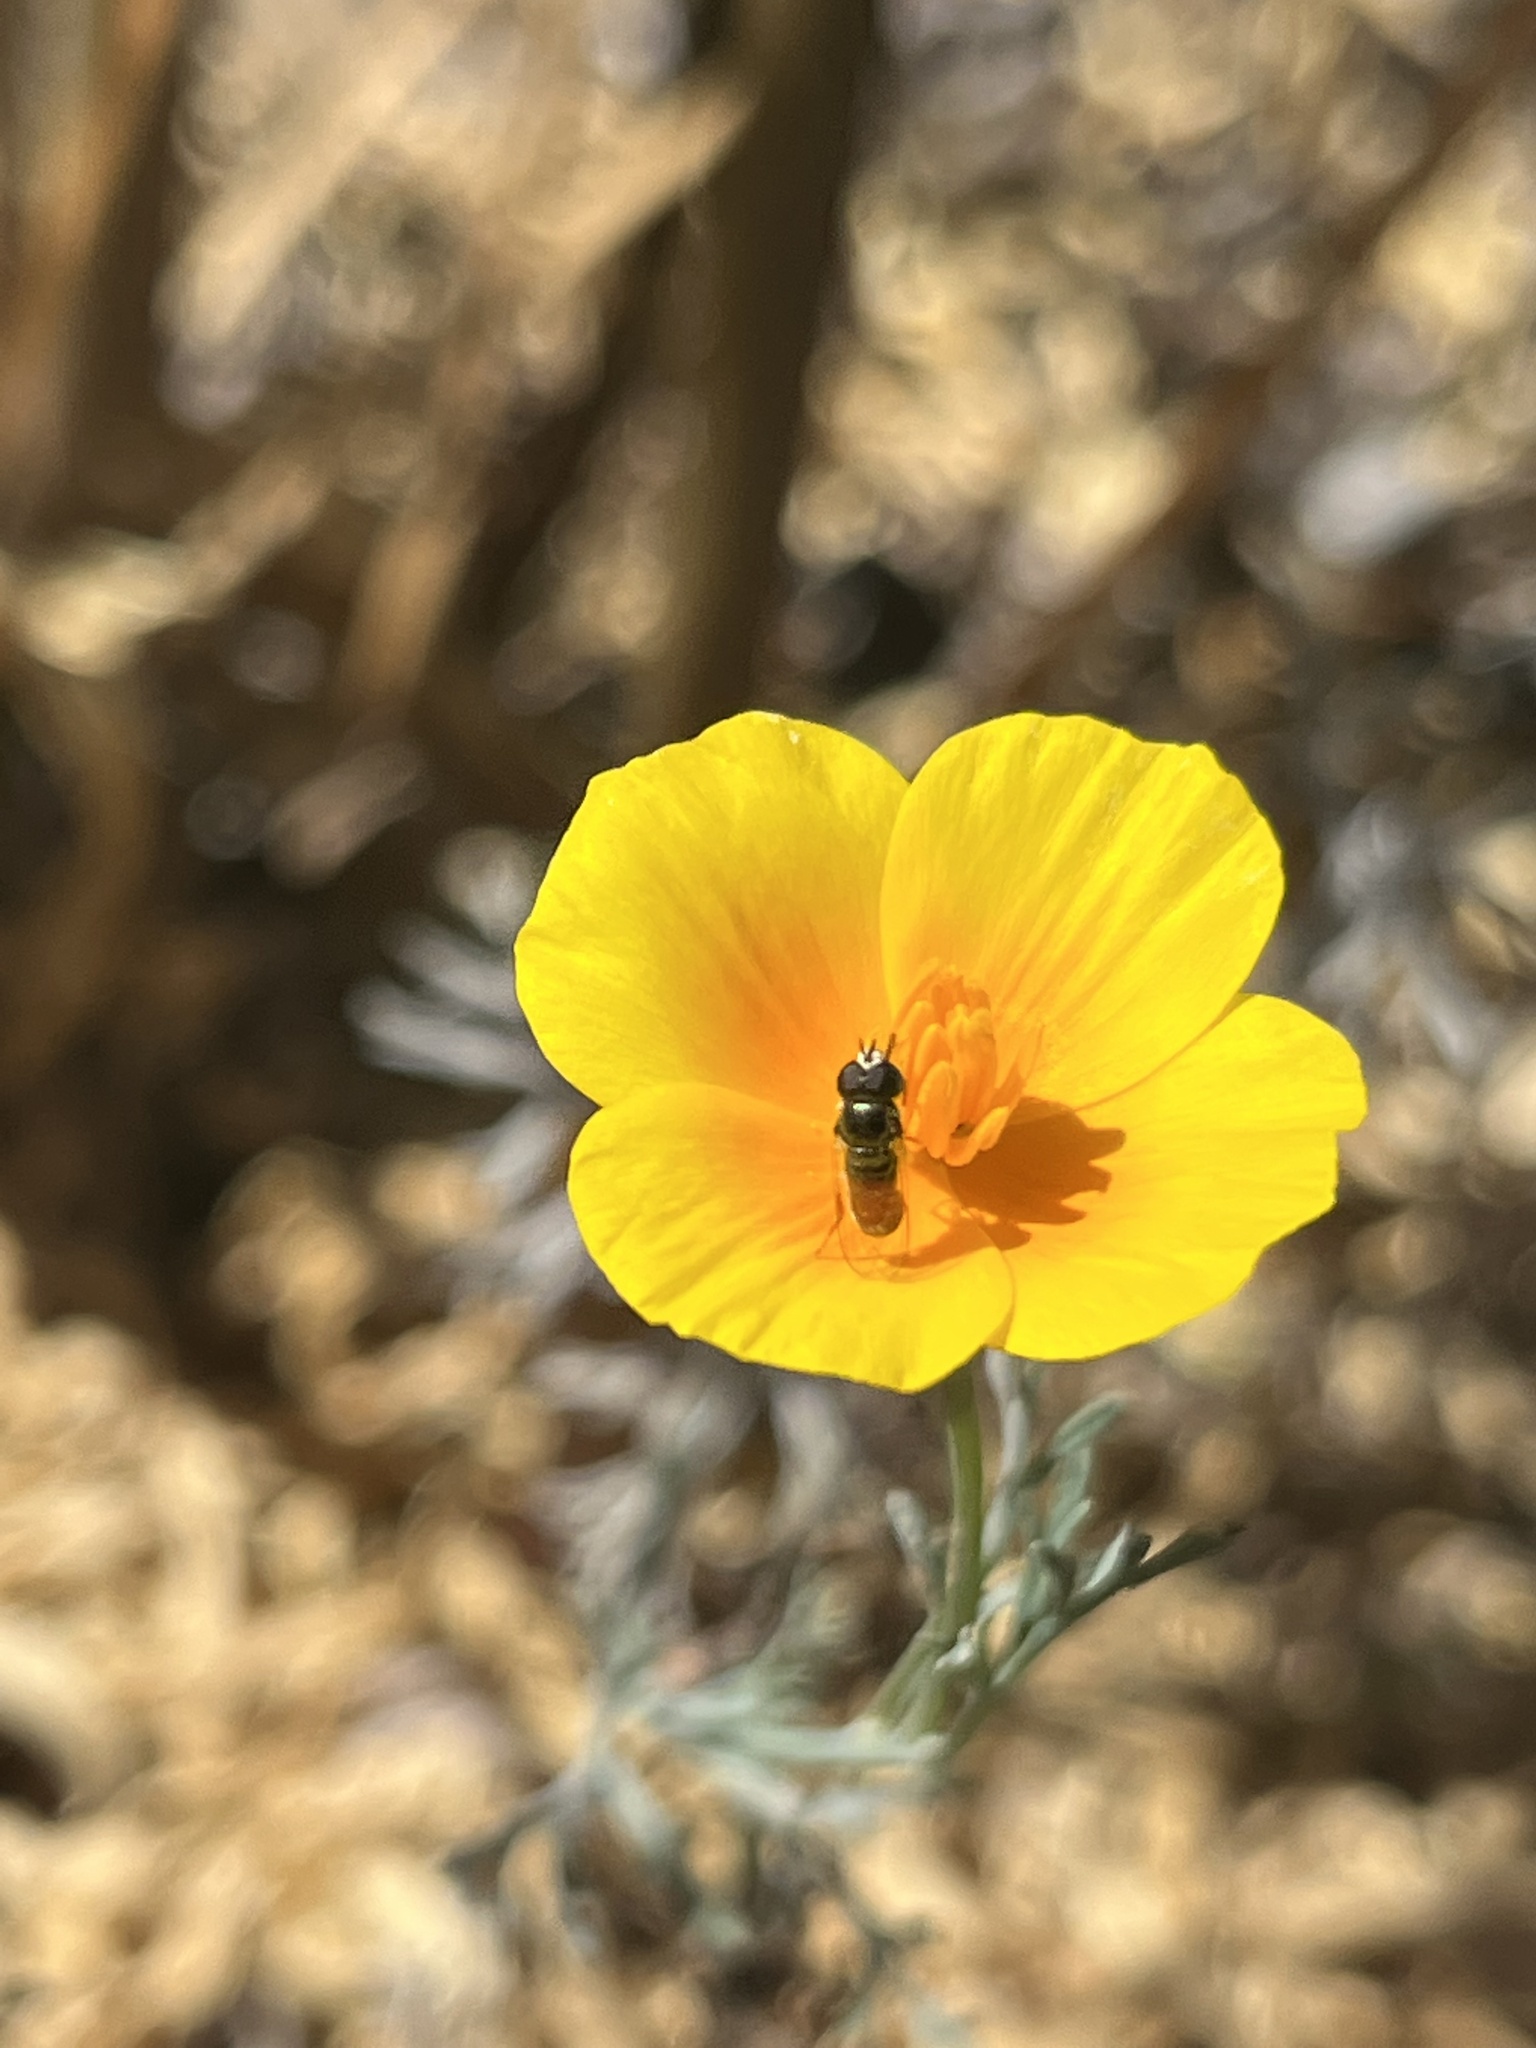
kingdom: Animalia
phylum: Arthropoda
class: Insecta
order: Diptera
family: Syrphidae
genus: Paragus
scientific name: Paragus haemorrhous
